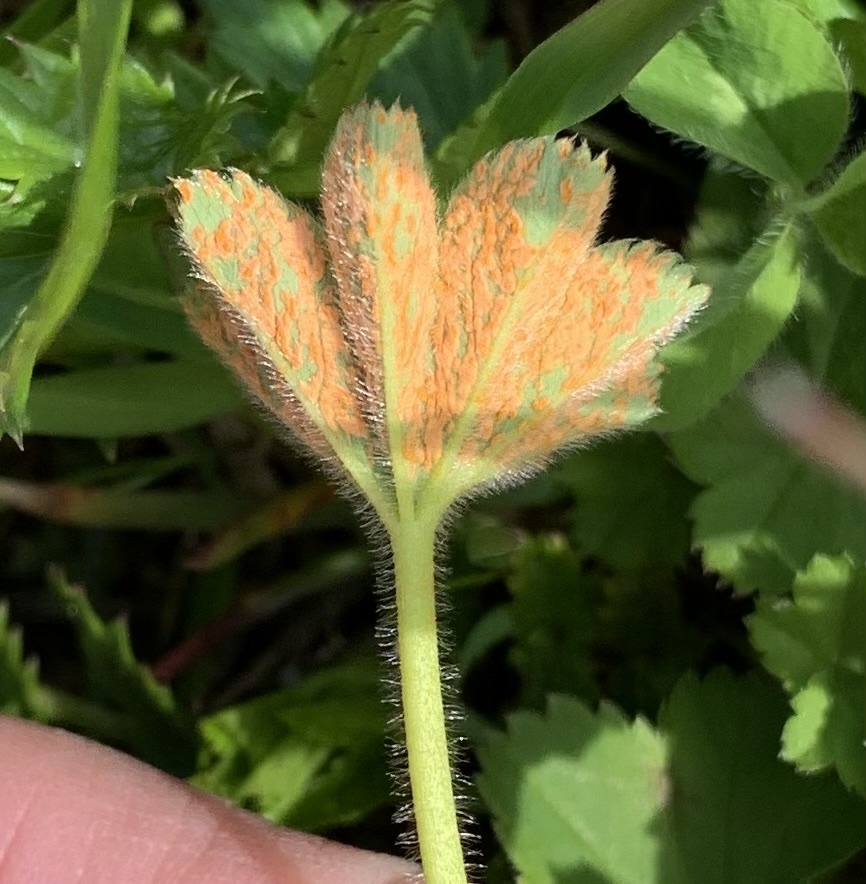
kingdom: Fungi
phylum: Basidiomycota
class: Pucciniomycetes
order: Pucciniales
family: Phragmidiaceae
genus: Trachyspora
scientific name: Trachyspora alchemillae
